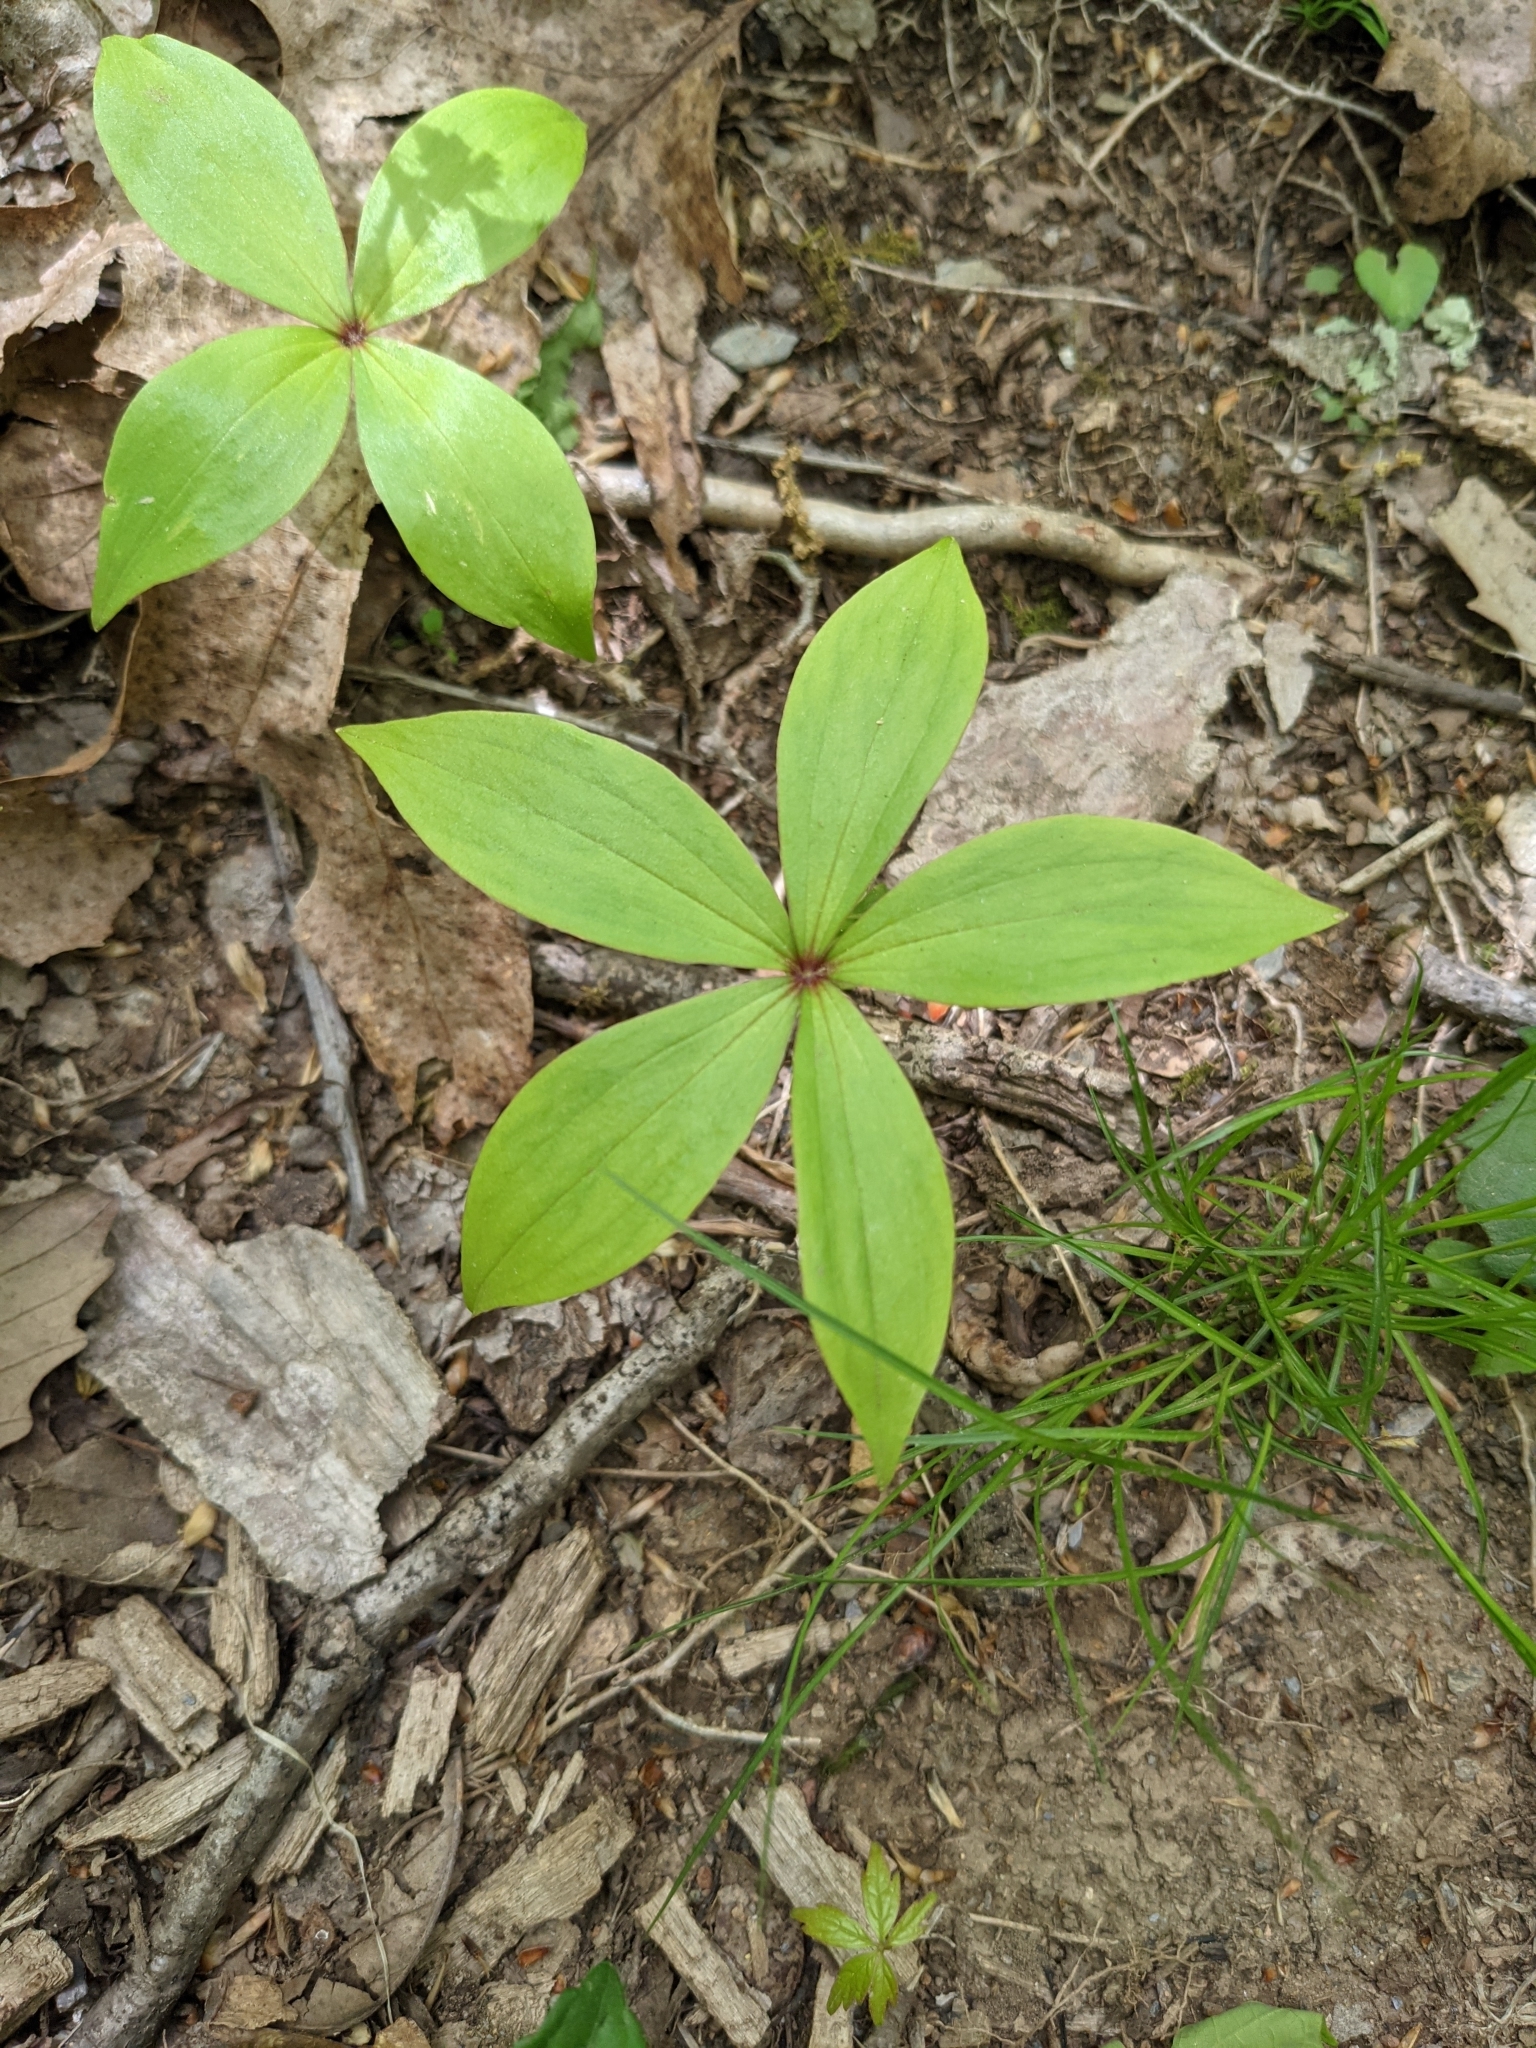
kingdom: Plantae
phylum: Tracheophyta
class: Liliopsida
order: Liliales
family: Liliaceae
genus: Medeola
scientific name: Medeola virginiana
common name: Indian cucumber-root
